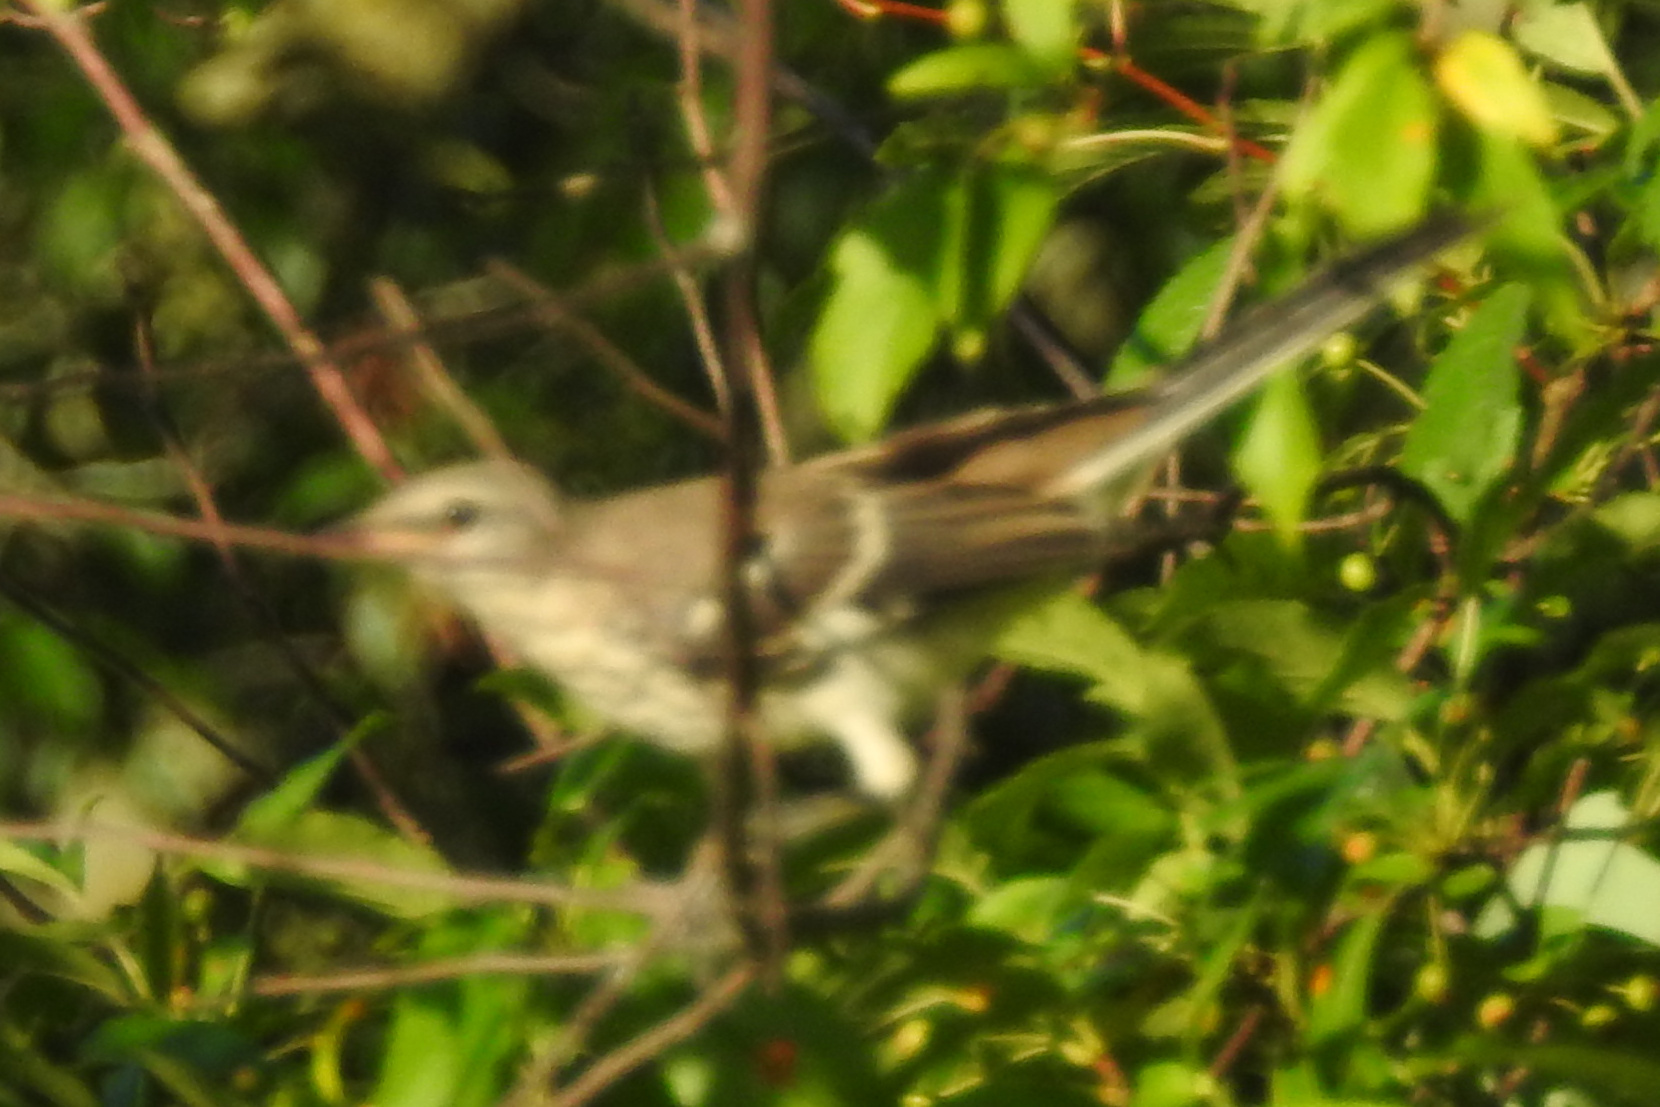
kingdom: Animalia
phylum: Chordata
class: Aves
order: Passeriformes
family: Mimidae
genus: Mimus
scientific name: Mimus polyglottos
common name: Northern mockingbird
